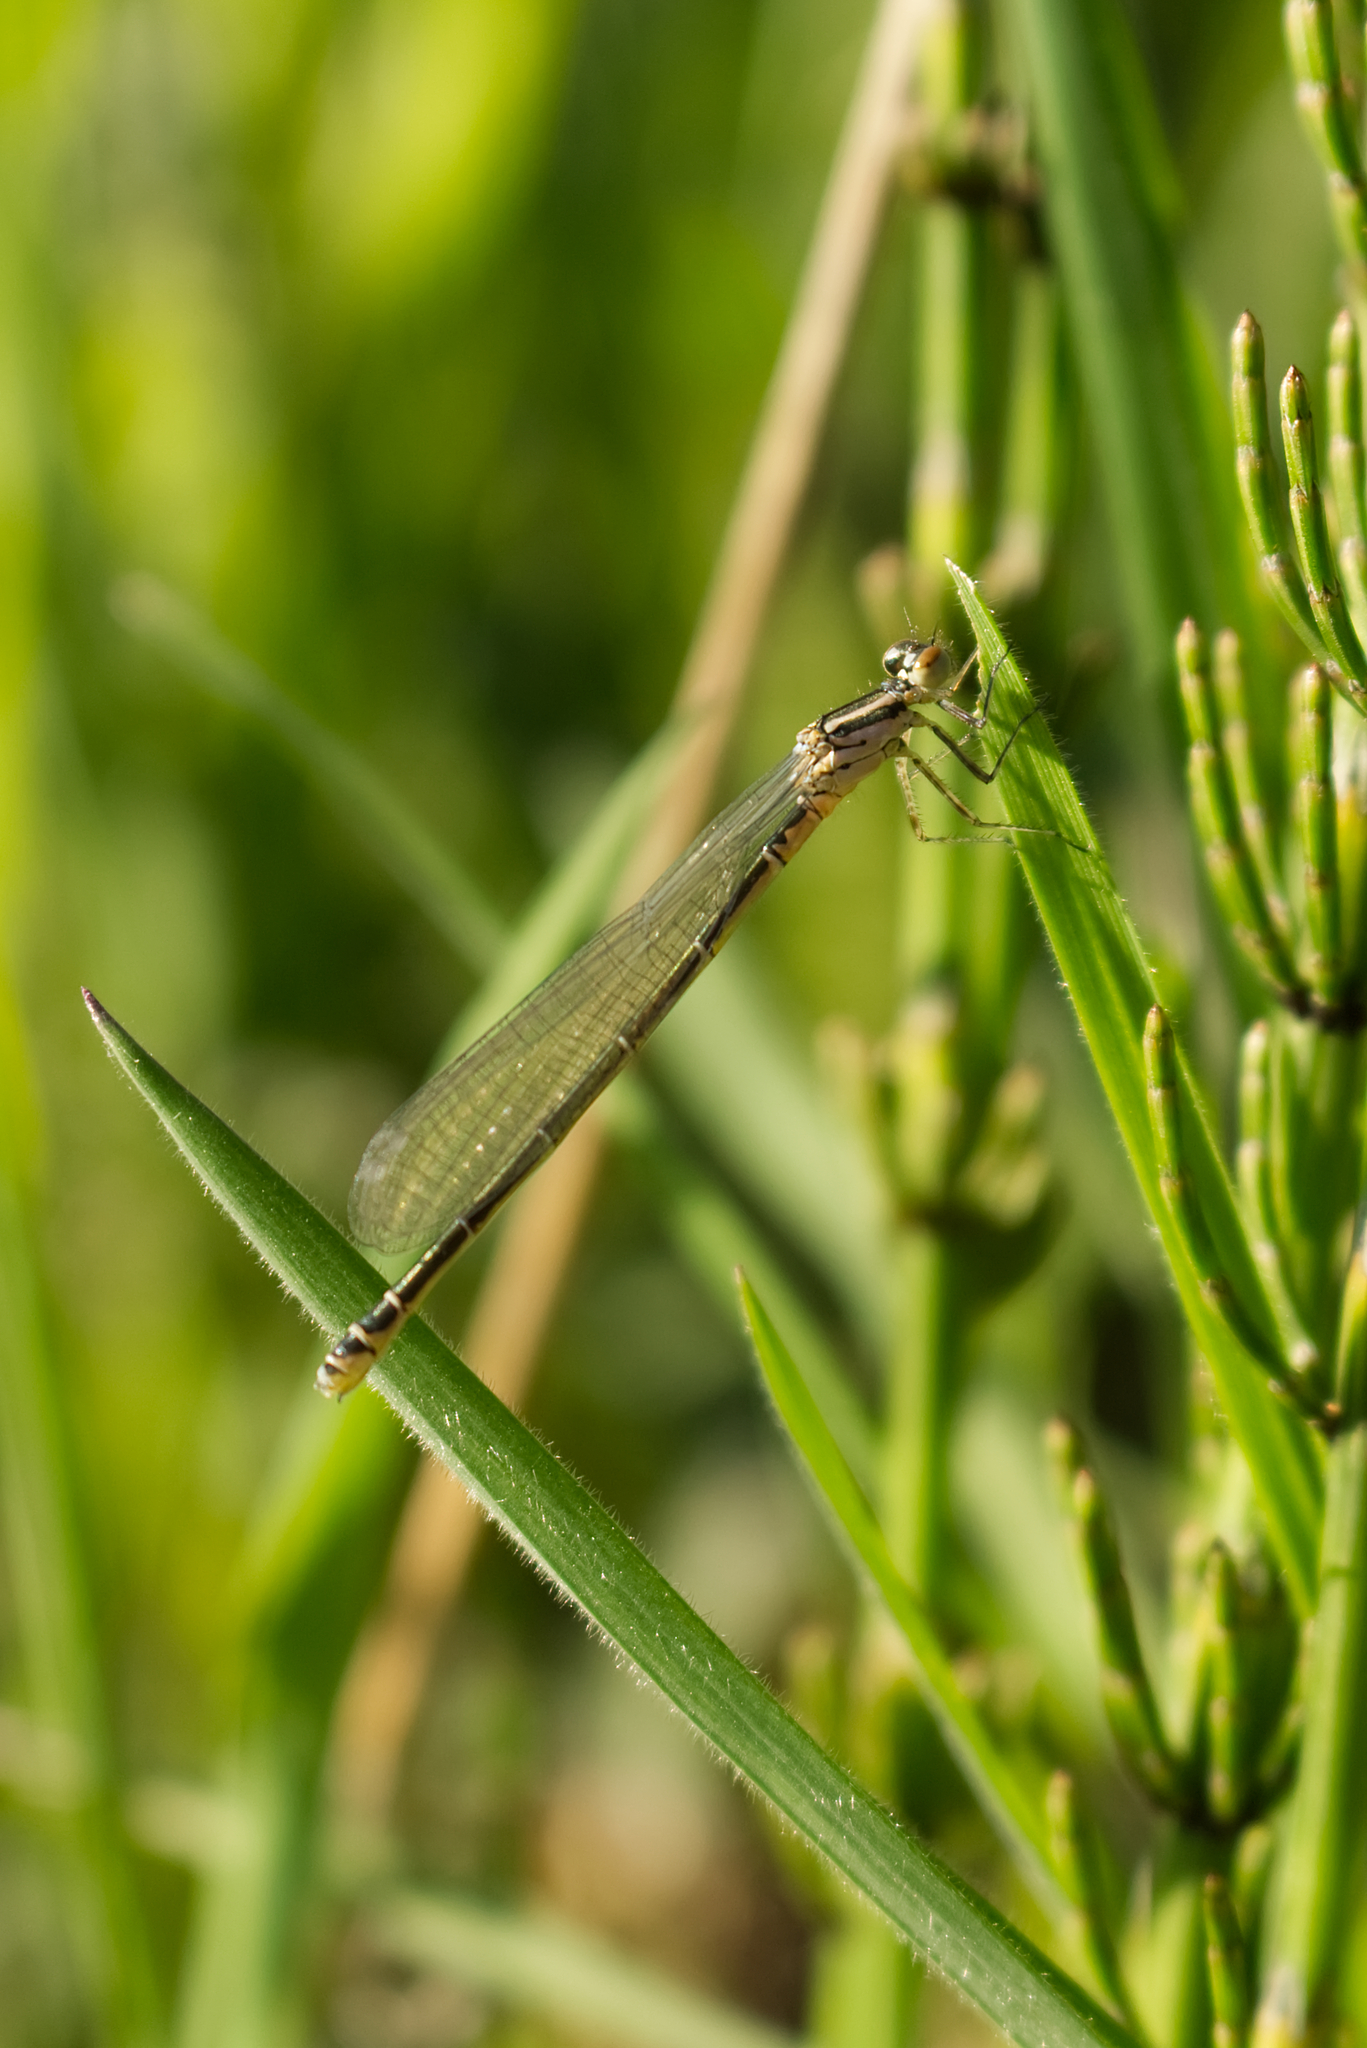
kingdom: Animalia
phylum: Arthropoda
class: Insecta
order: Odonata
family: Coenagrionidae
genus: Coenagrion
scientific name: Coenagrion puella
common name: Azure damselfly
